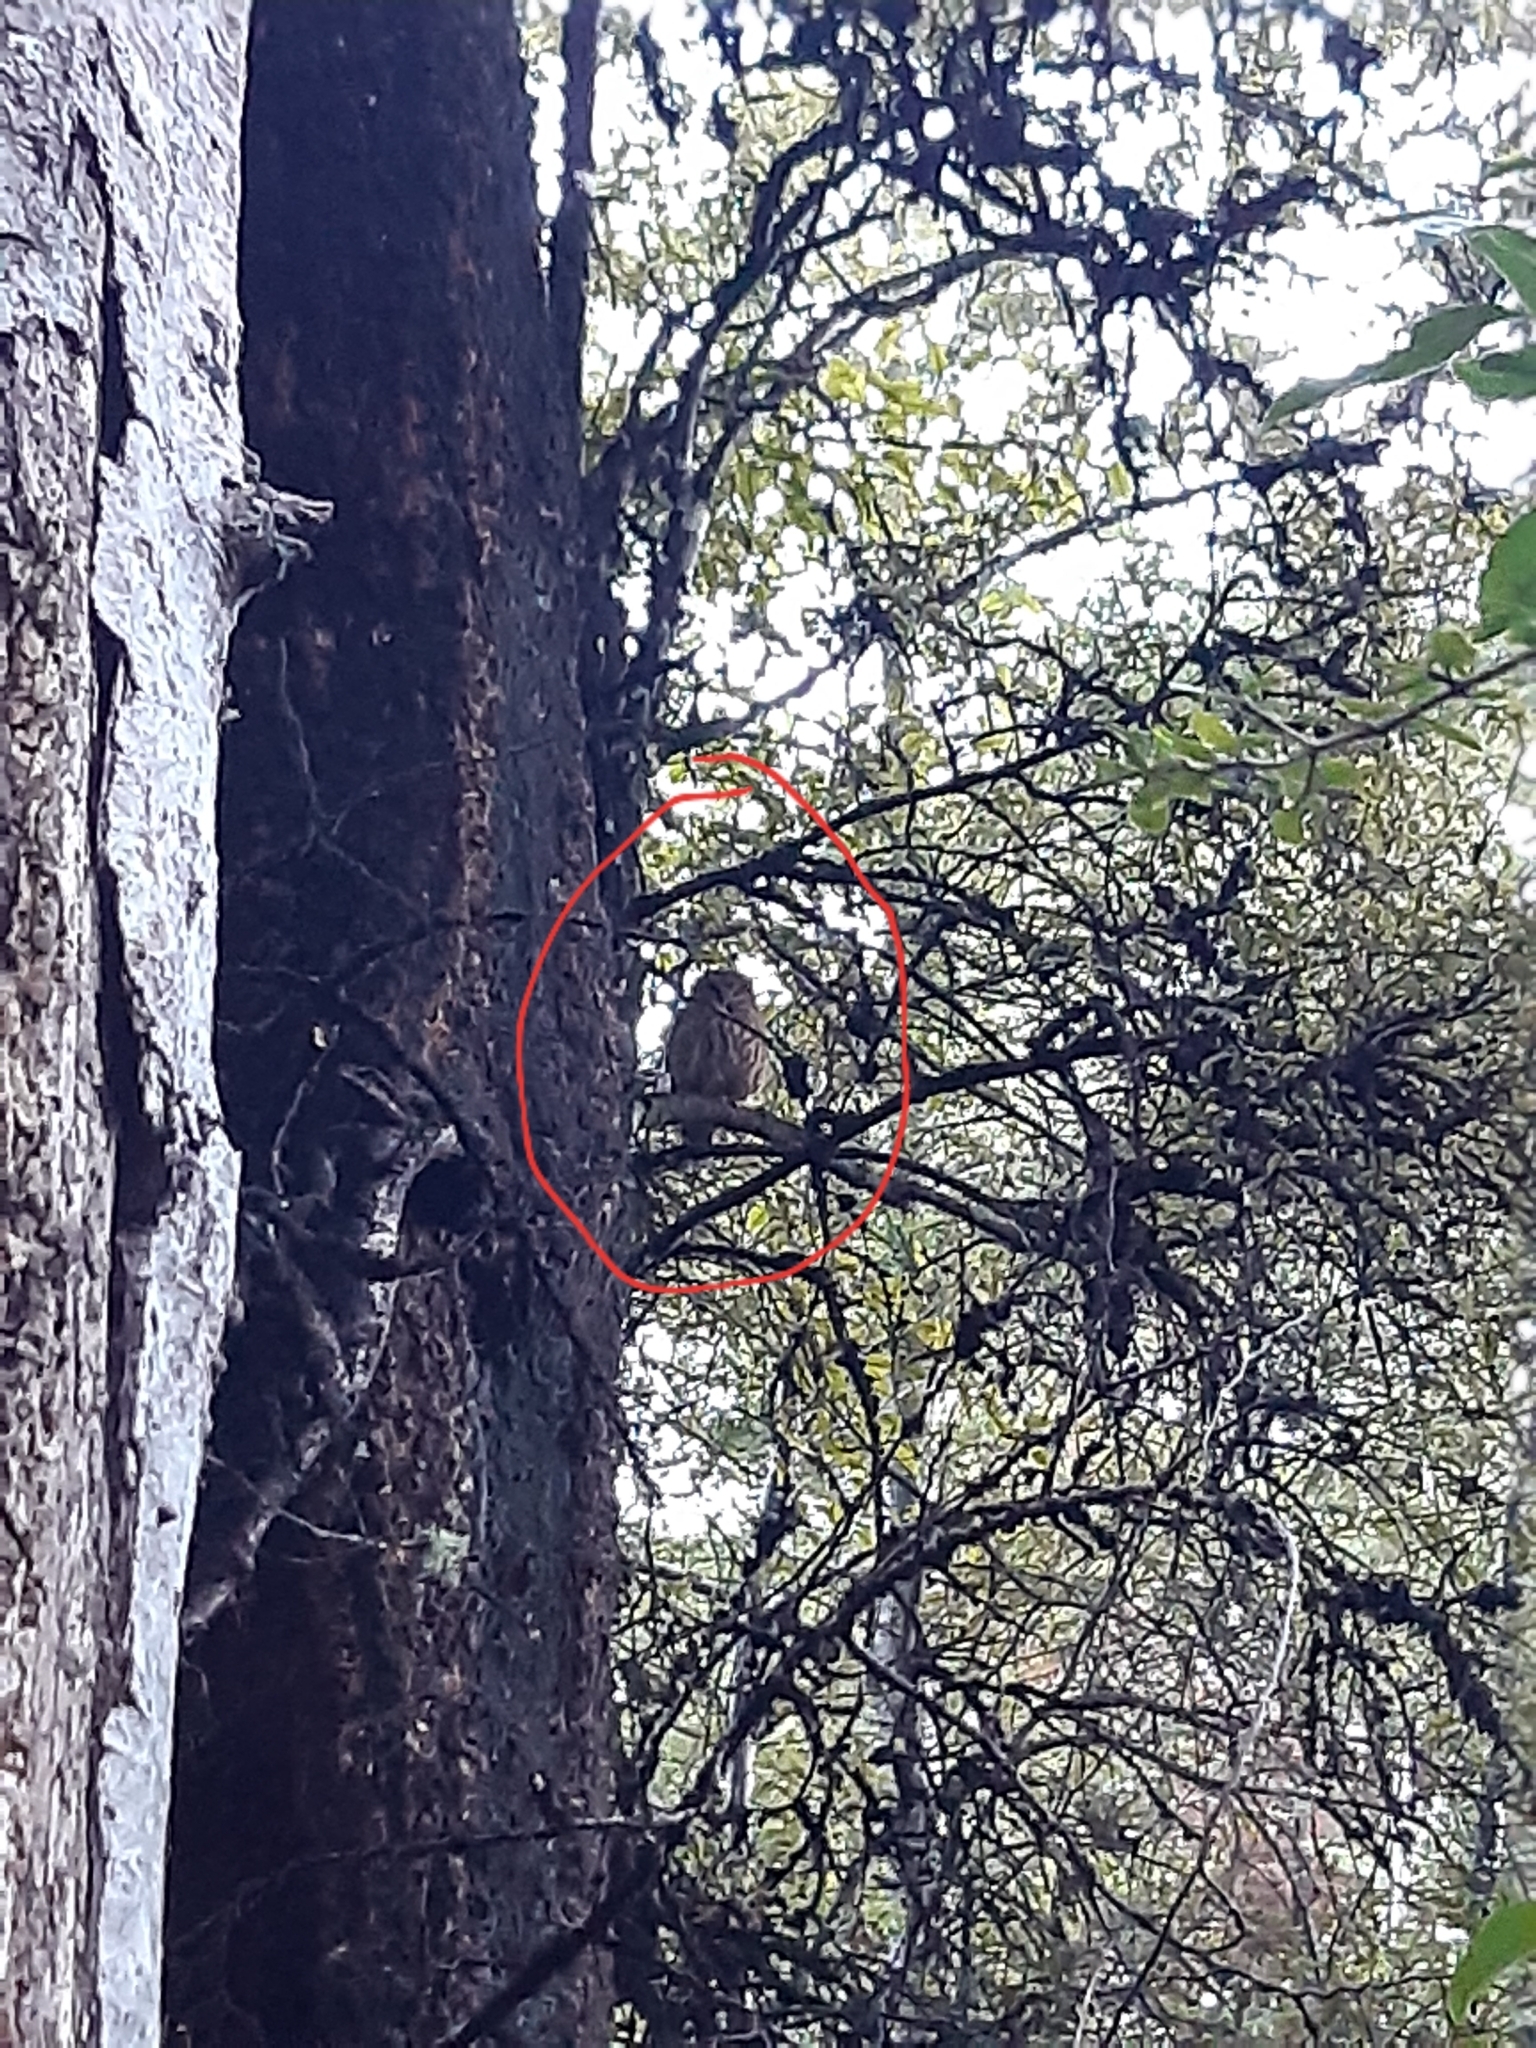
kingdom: Animalia
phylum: Chordata
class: Aves
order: Strigiformes
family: Strigidae
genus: Ninox
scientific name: Ninox novaeseelandiae
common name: Morepork
